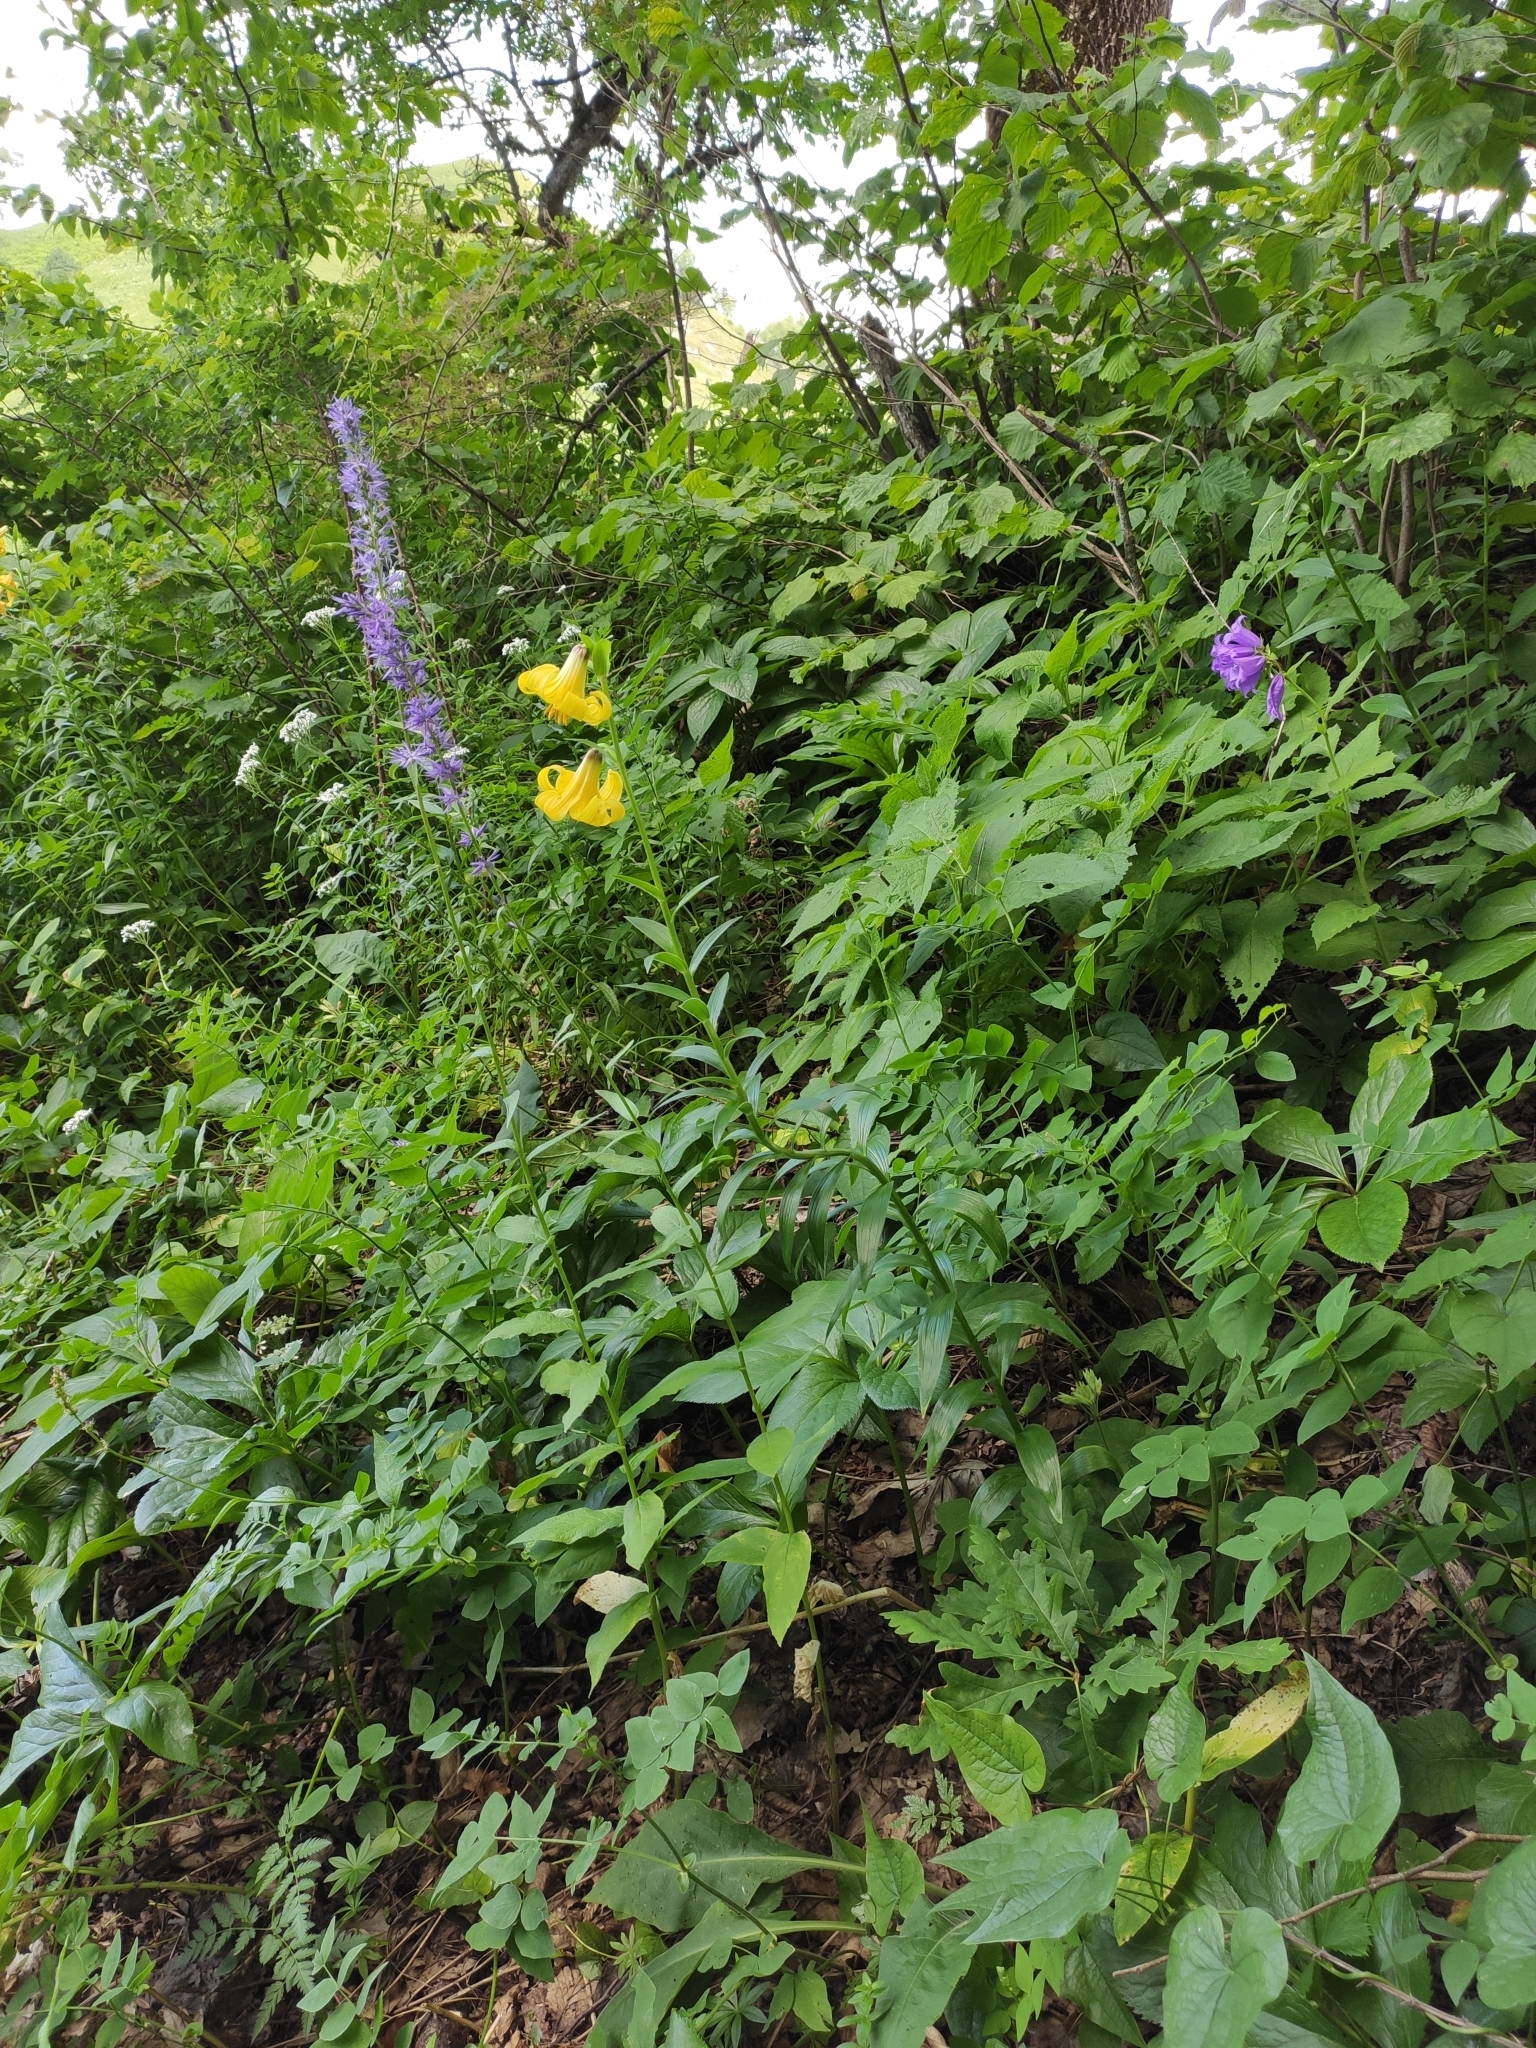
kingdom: Plantae
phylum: Tracheophyta
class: Liliopsida
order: Liliales
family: Liliaceae
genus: Lilium
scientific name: Lilium monadelphum
